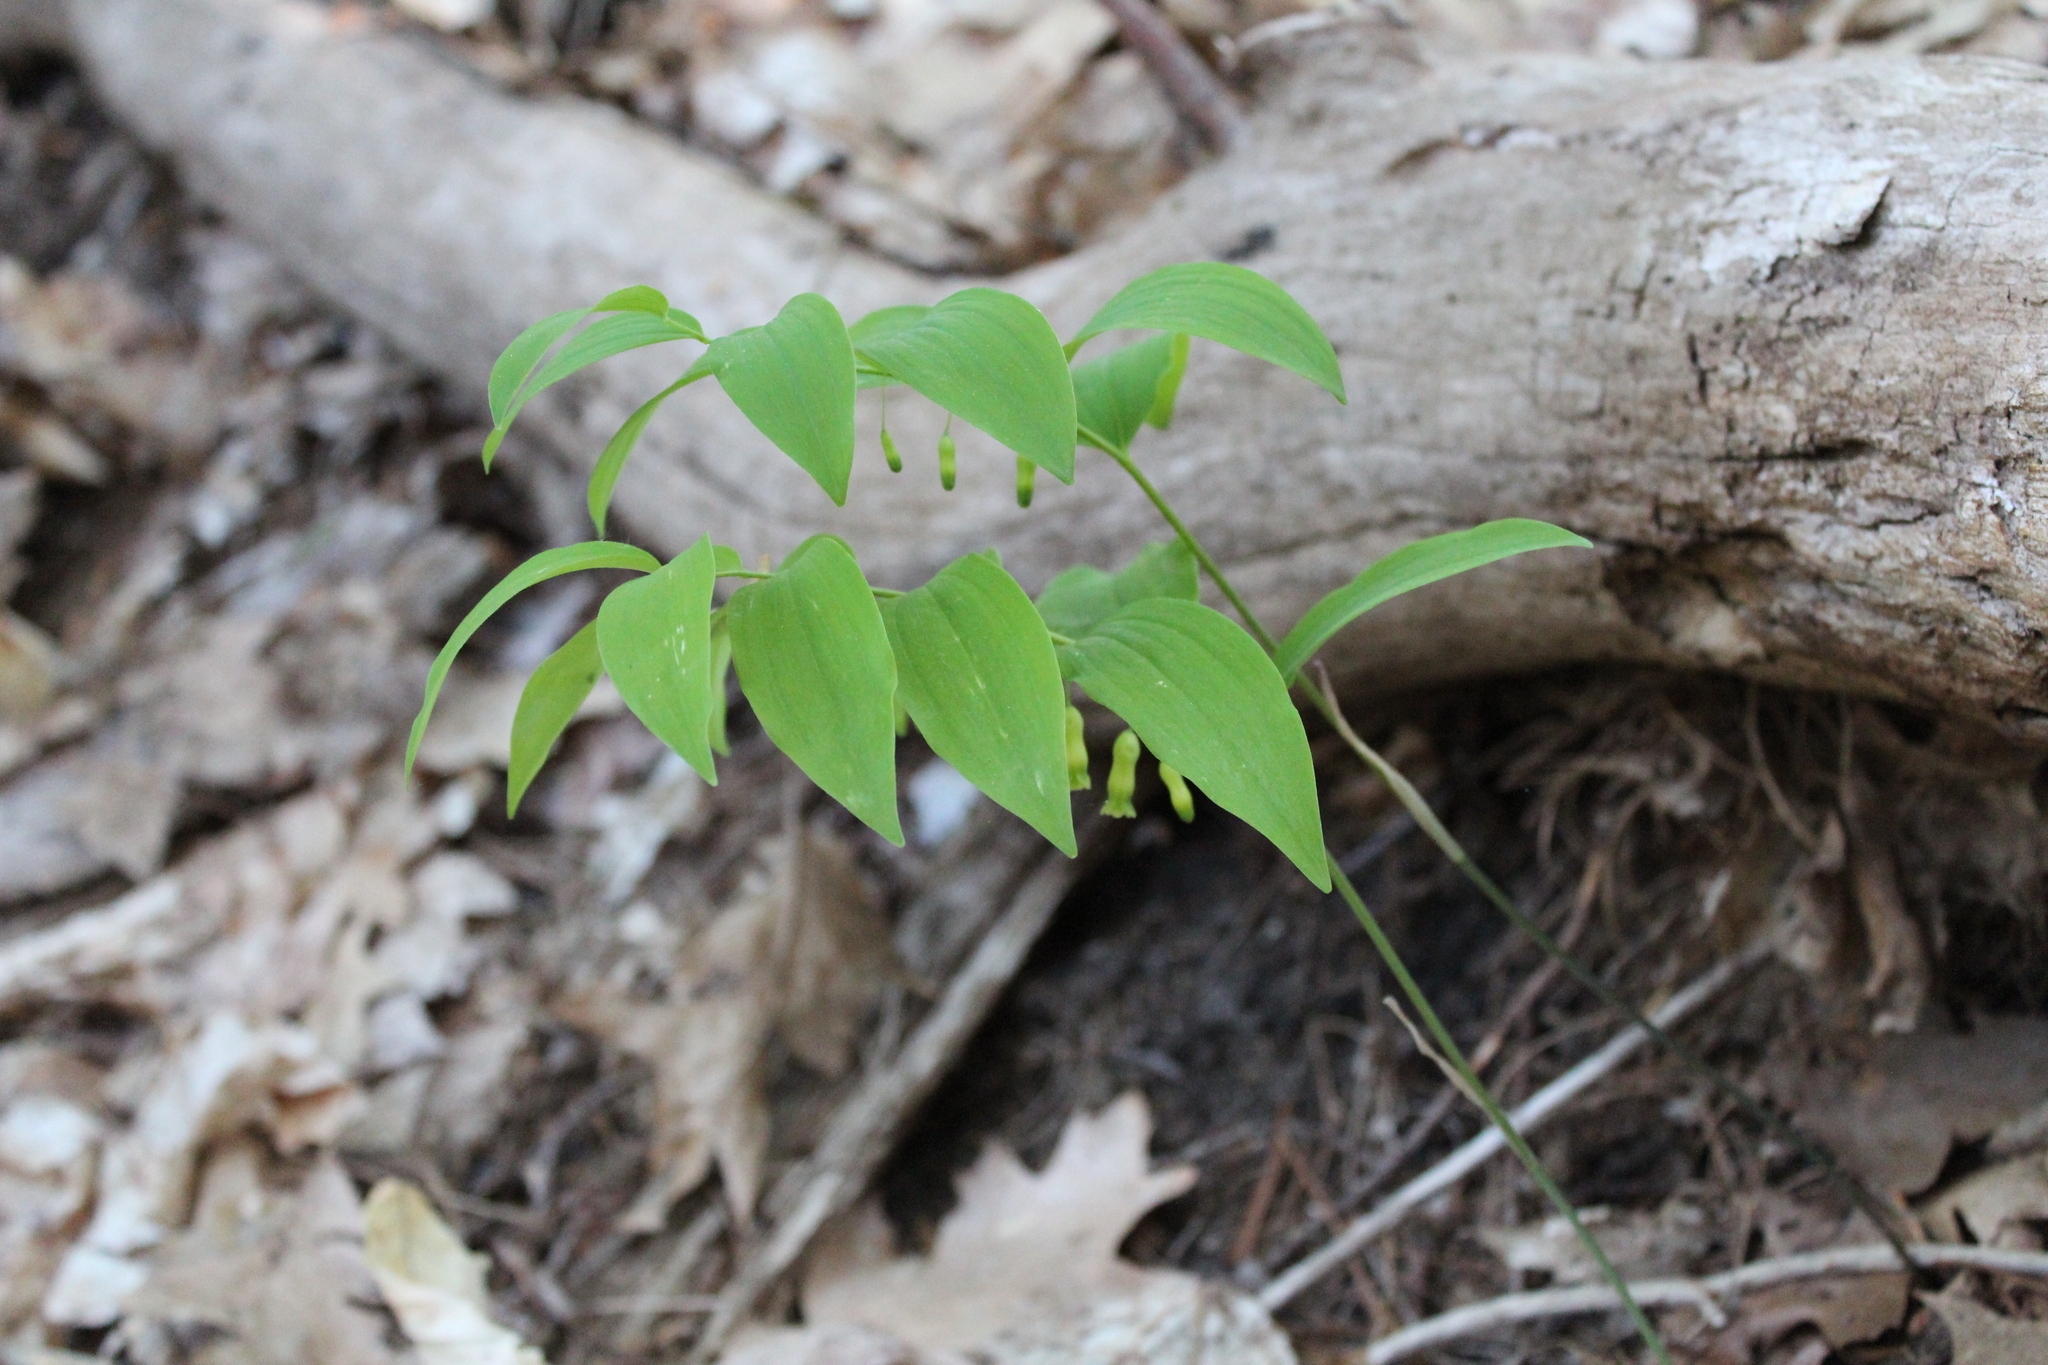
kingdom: Plantae
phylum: Tracheophyta
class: Liliopsida
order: Asparagales
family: Asparagaceae
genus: Polygonatum
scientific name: Polygonatum pubescens
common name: Downy solomon's seal
